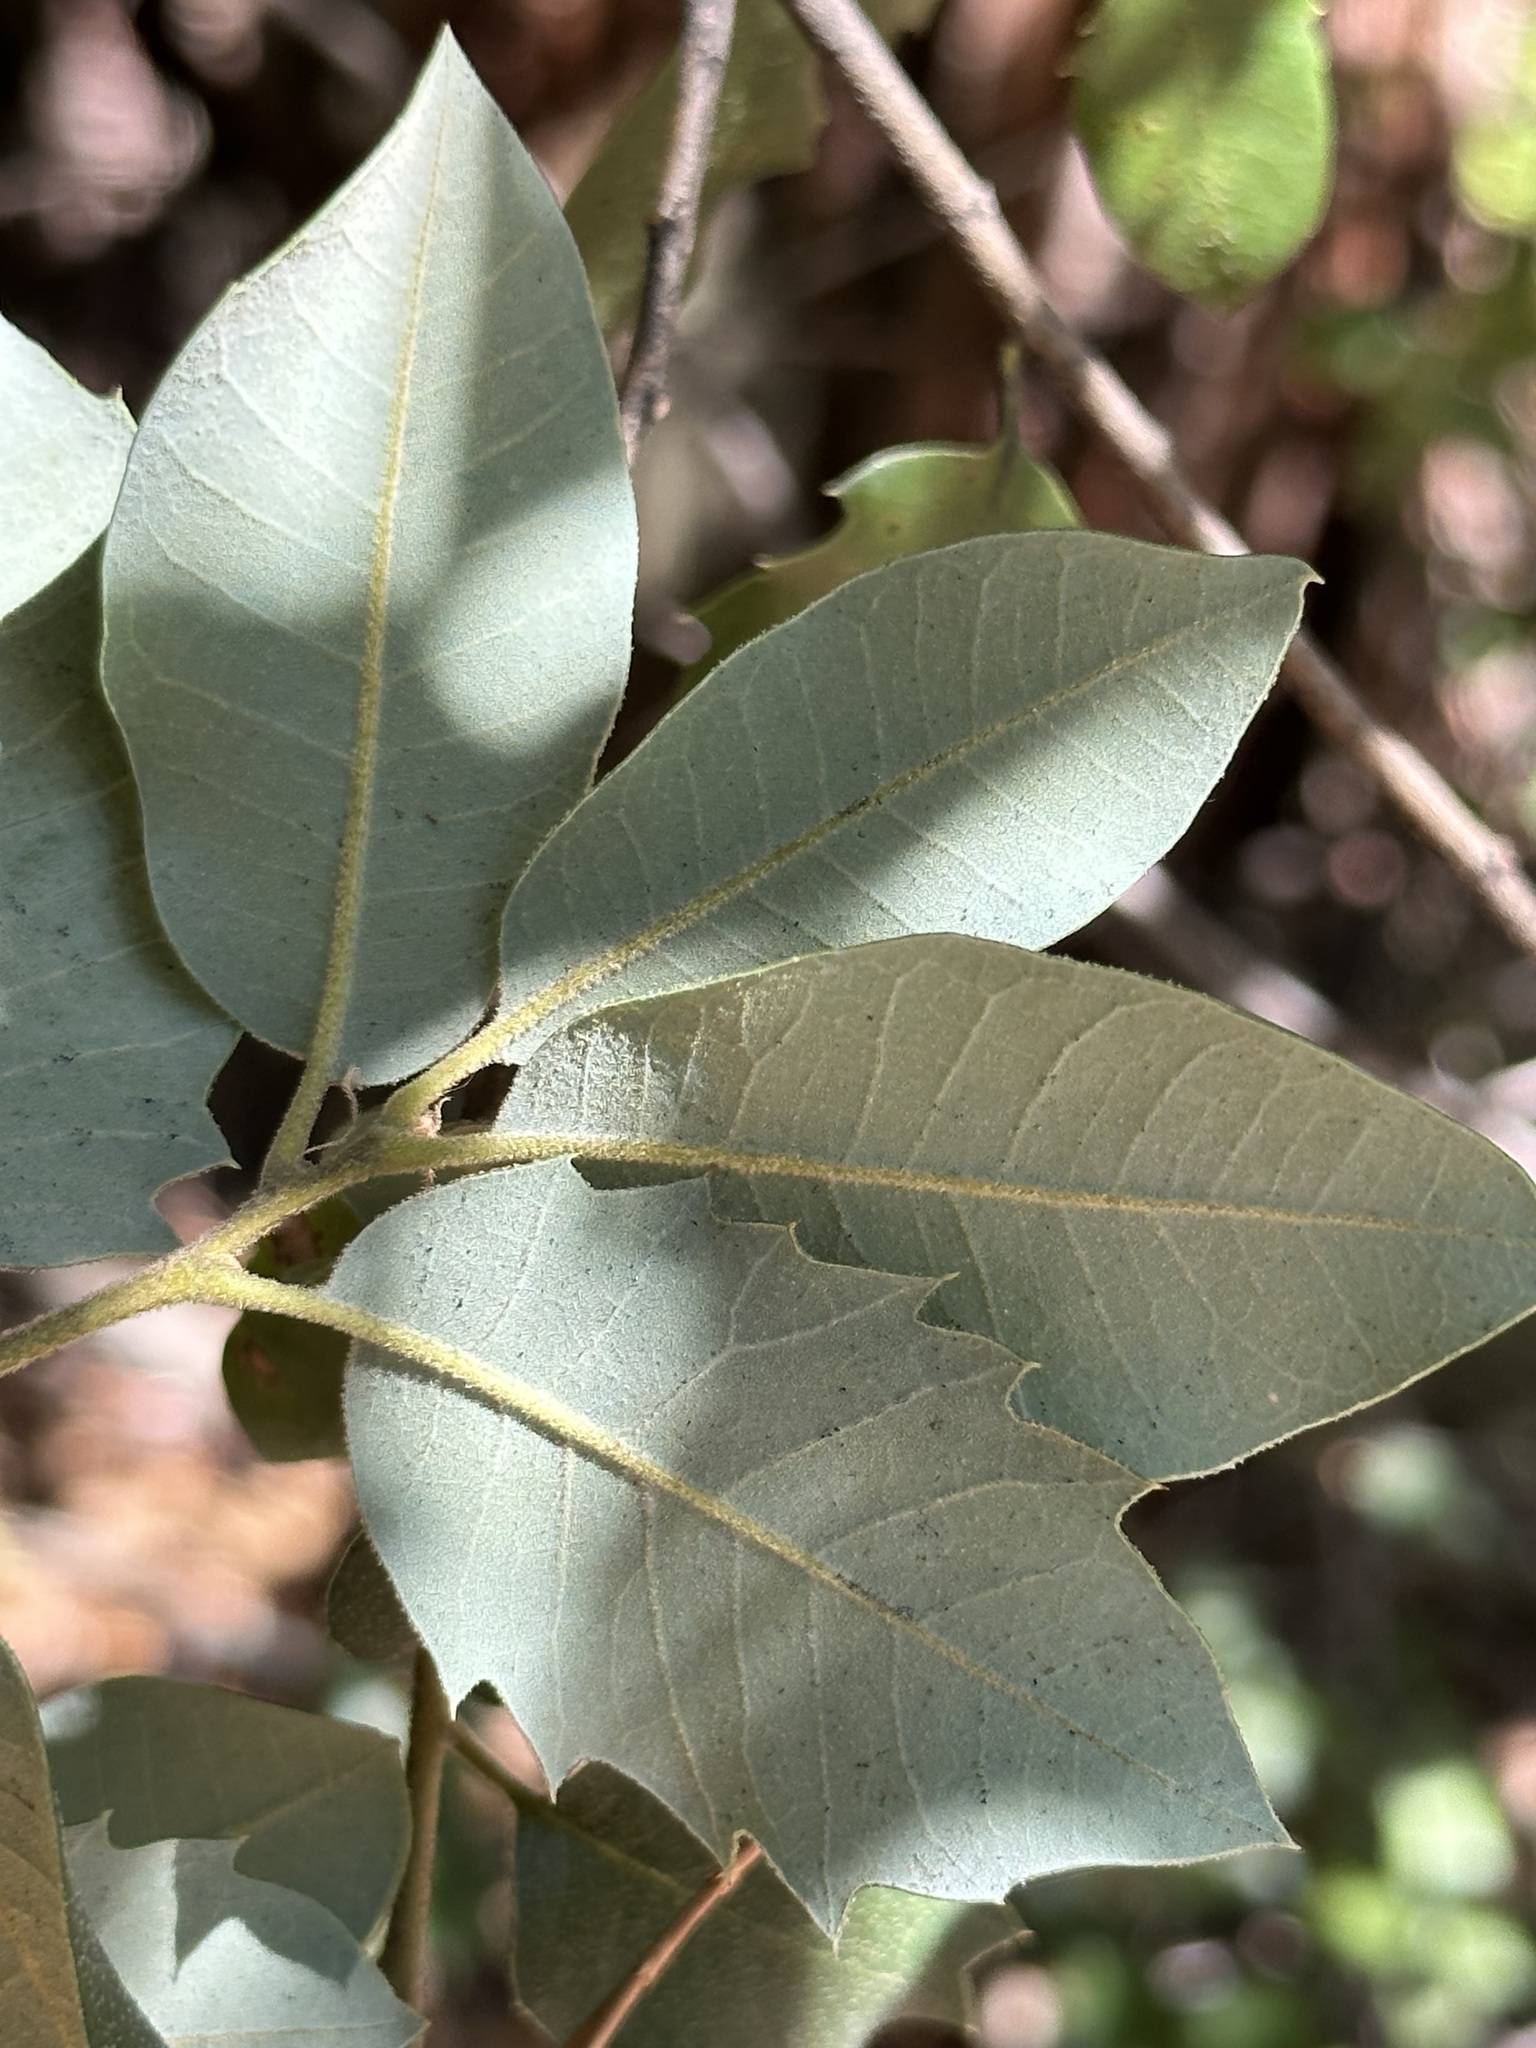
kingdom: Plantae
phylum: Tracheophyta
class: Magnoliopsida
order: Fagales
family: Fagaceae
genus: Quercus
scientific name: Quercus chrysolepis
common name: Canyon live oak
